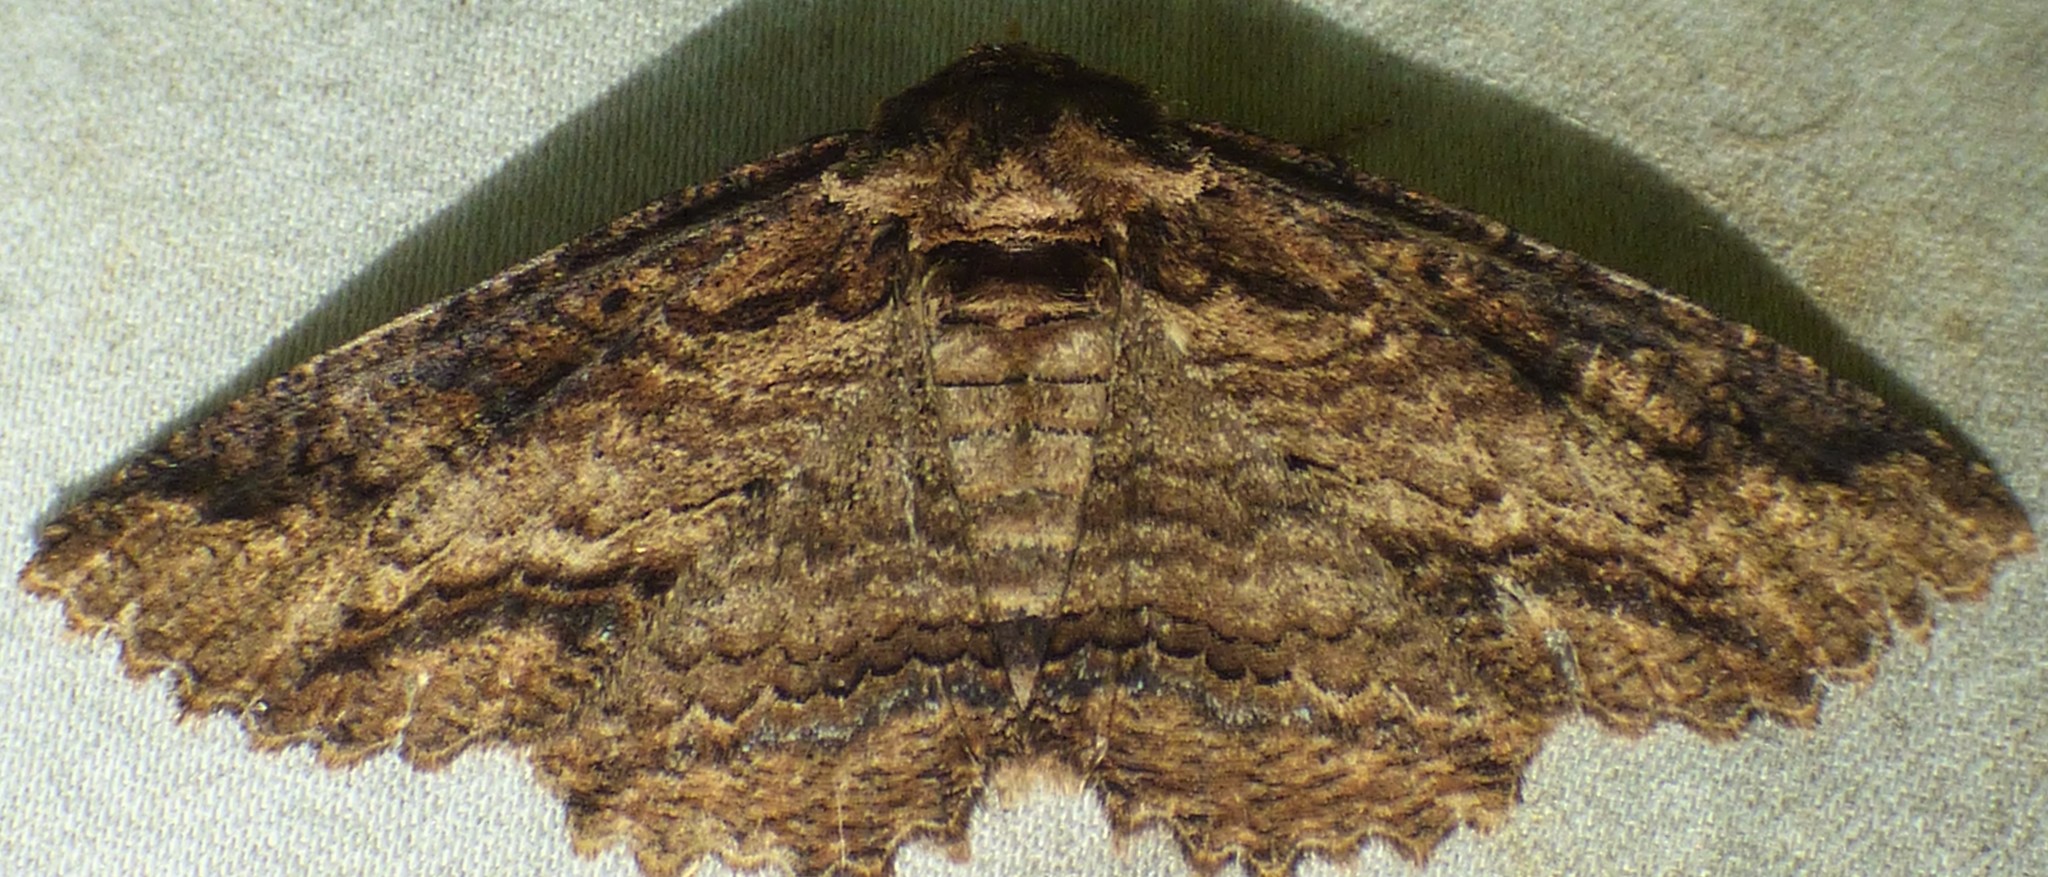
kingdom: Animalia
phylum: Arthropoda
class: Insecta
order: Lepidoptera
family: Erebidae
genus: Zale
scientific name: Zale minerea
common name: Colorful zale moth
